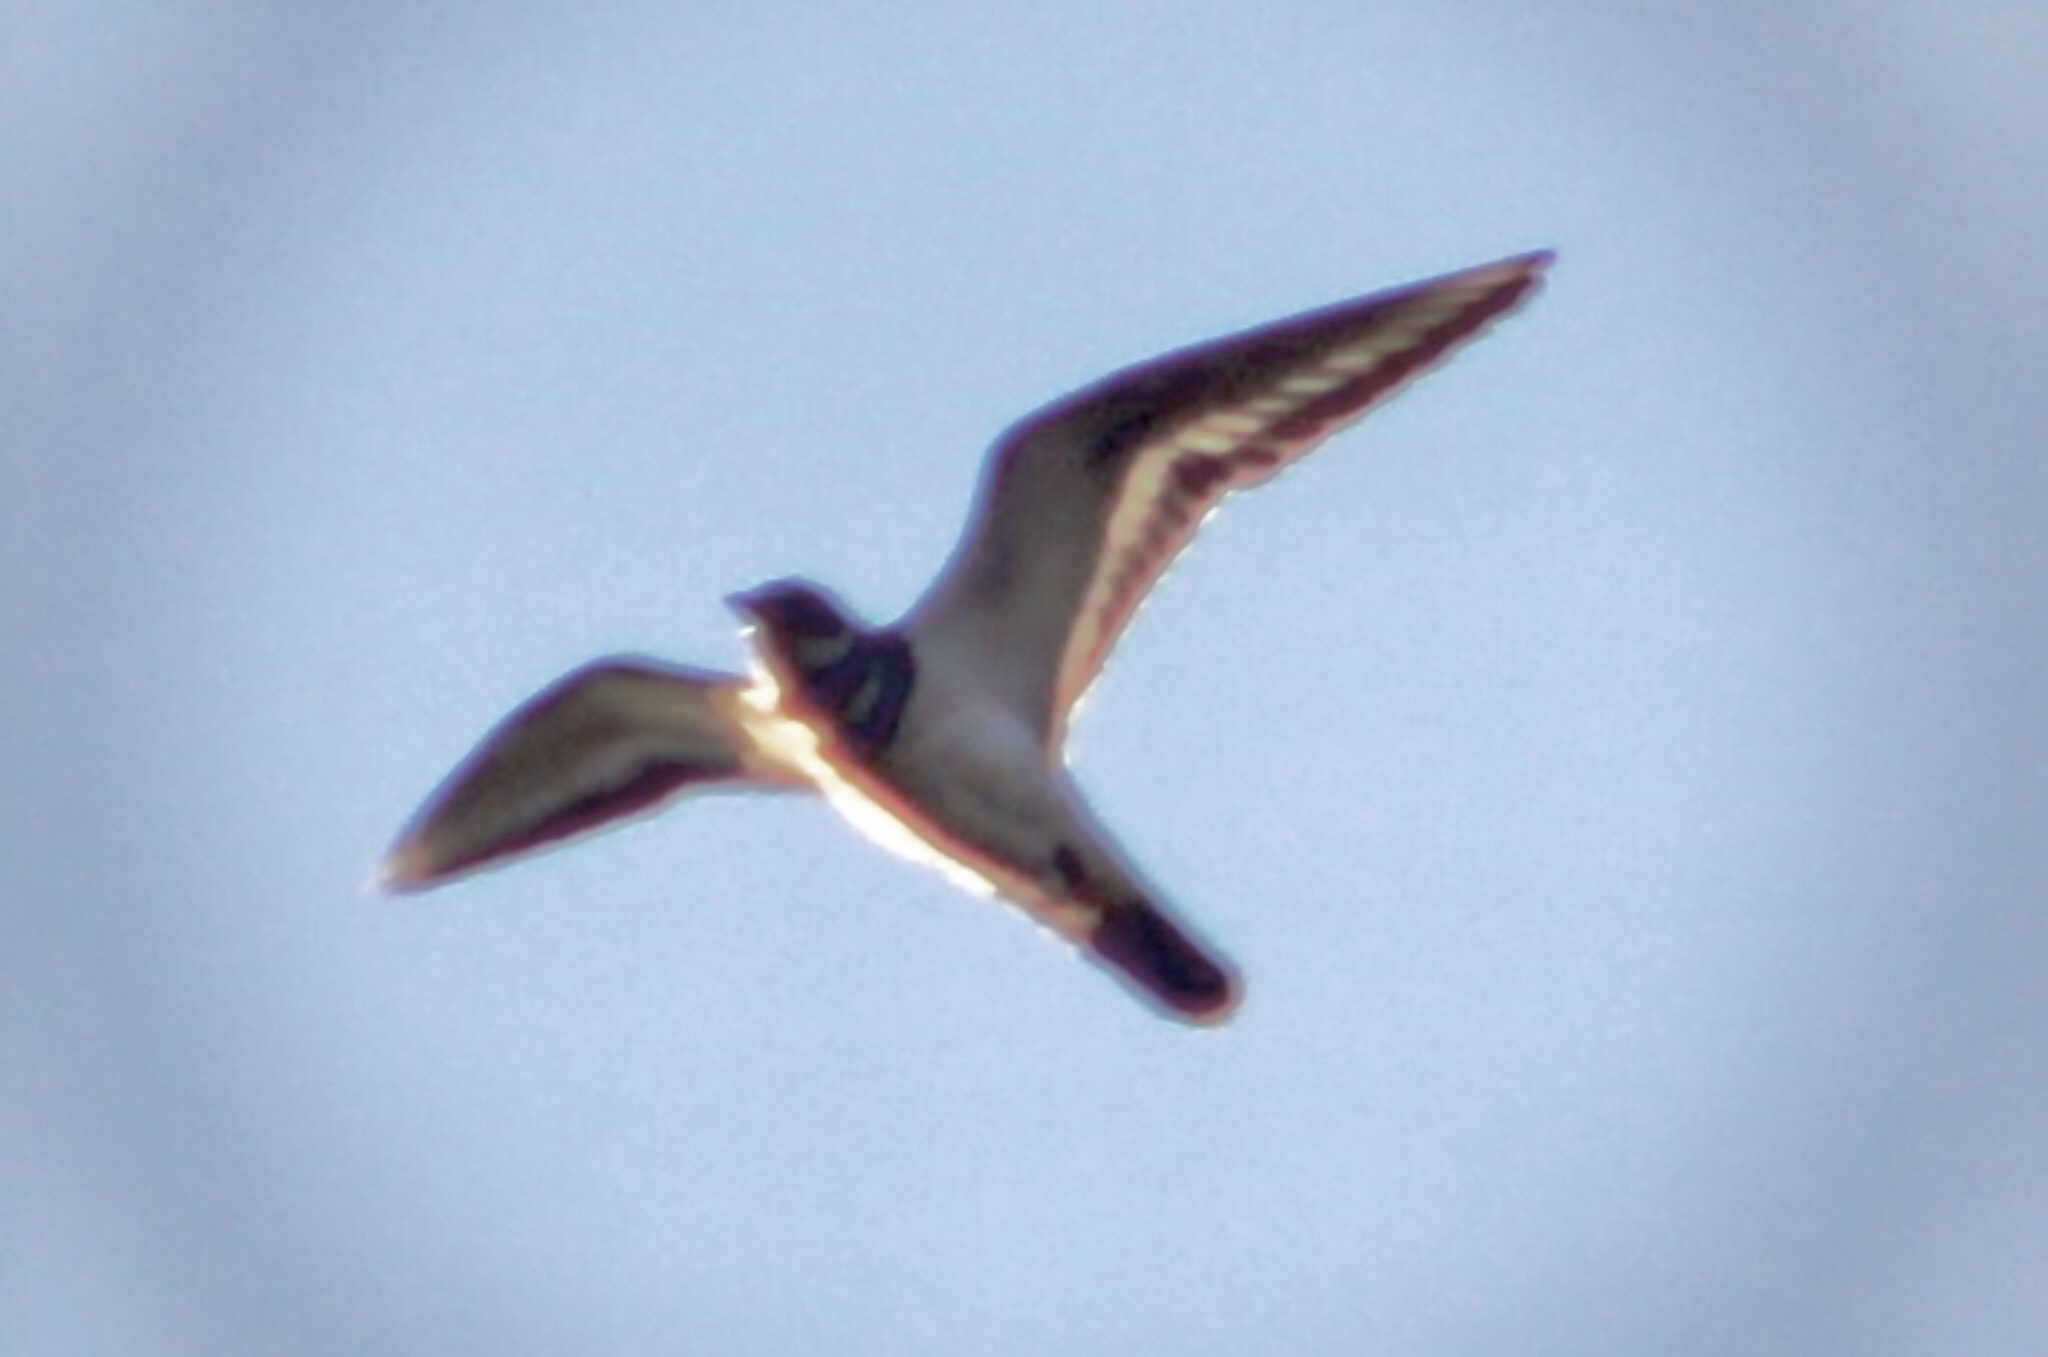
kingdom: Animalia
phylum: Chordata
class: Aves
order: Charadriiformes
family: Charadriidae
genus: Charadrius
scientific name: Charadrius vociferus
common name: Killdeer
